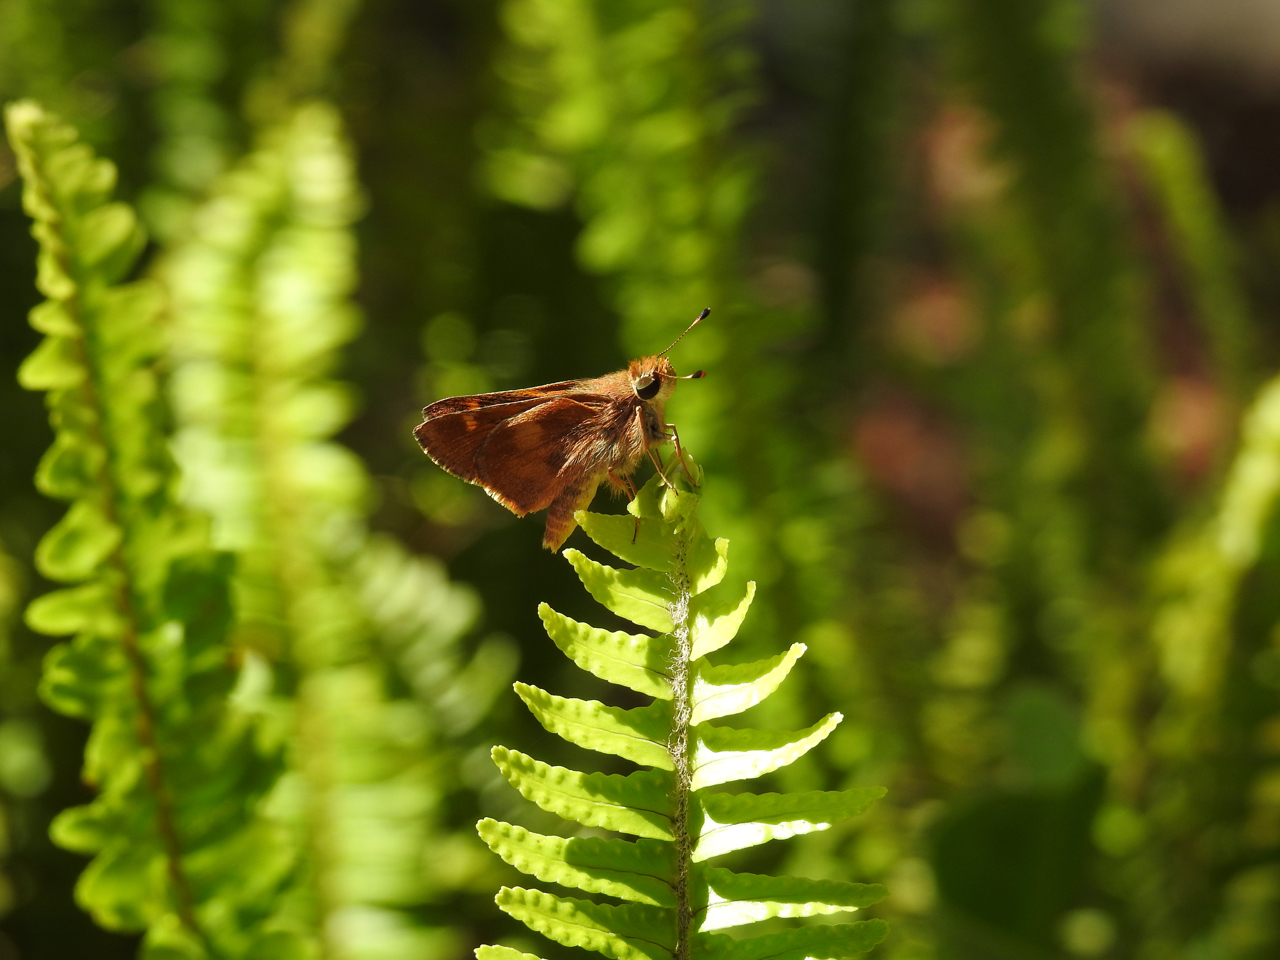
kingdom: Animalia
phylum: Arthropoda
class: Insecta
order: Lepidoptera
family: Hesperiidae
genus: Lon
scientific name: Lon melane
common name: Umber skipper
